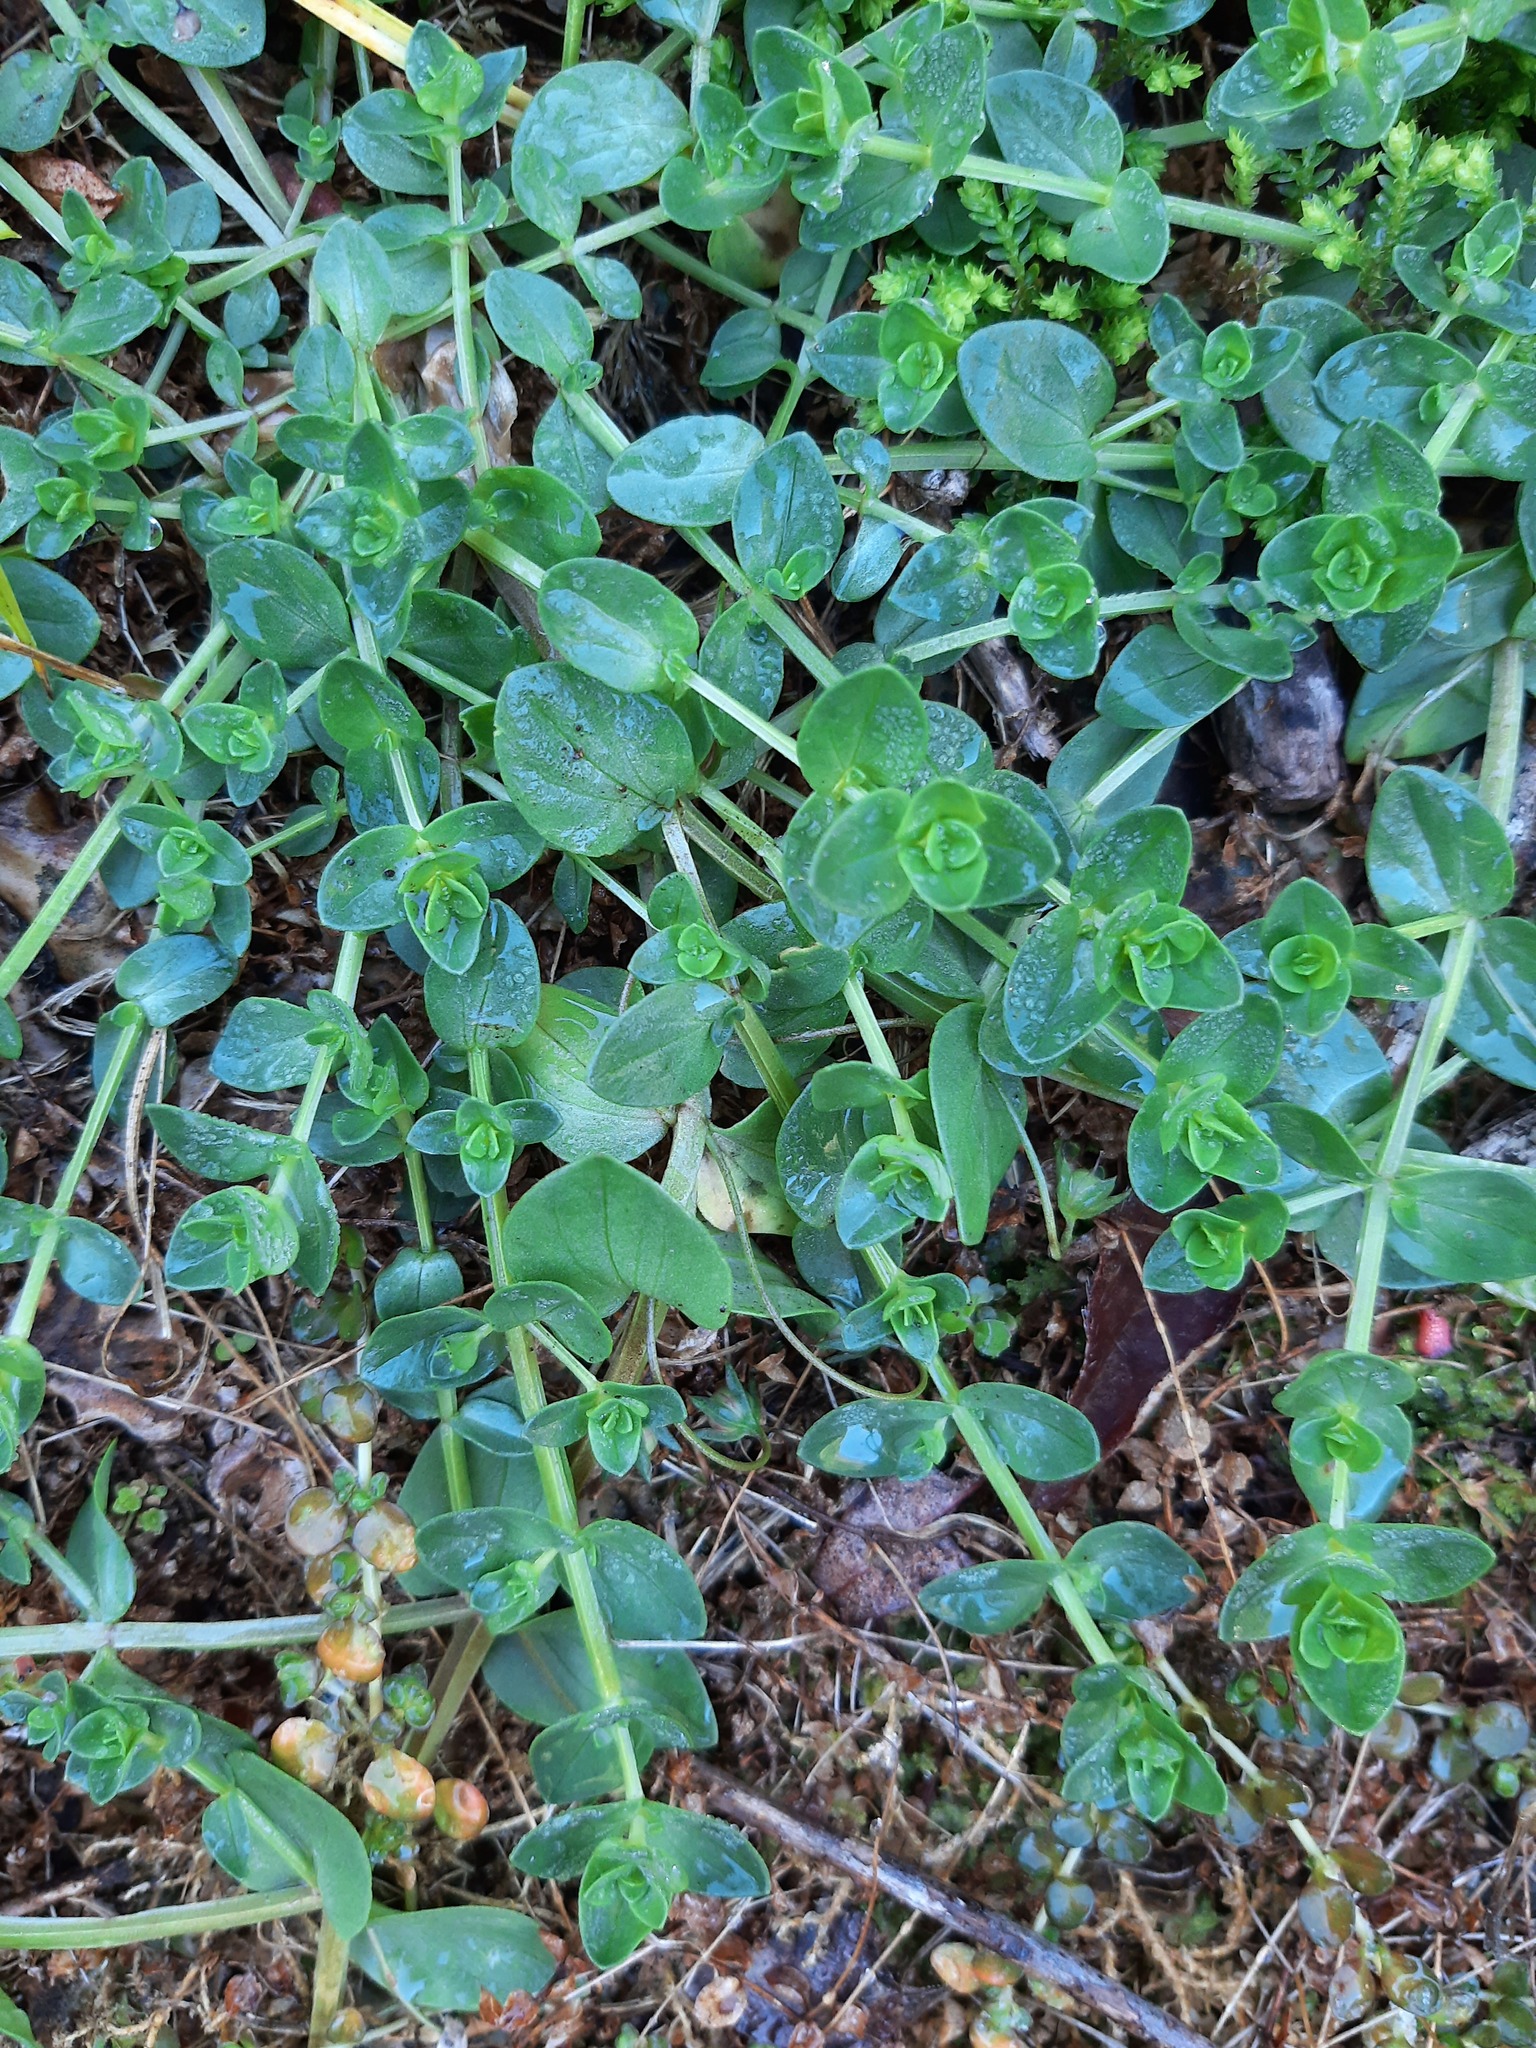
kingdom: Plantae
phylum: Tracheophyta
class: Magnoliopsida
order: Ericales
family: Primulaceae
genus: Lysimachia
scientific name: Lysimachia arvensis
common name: Scarlet pimpernel
